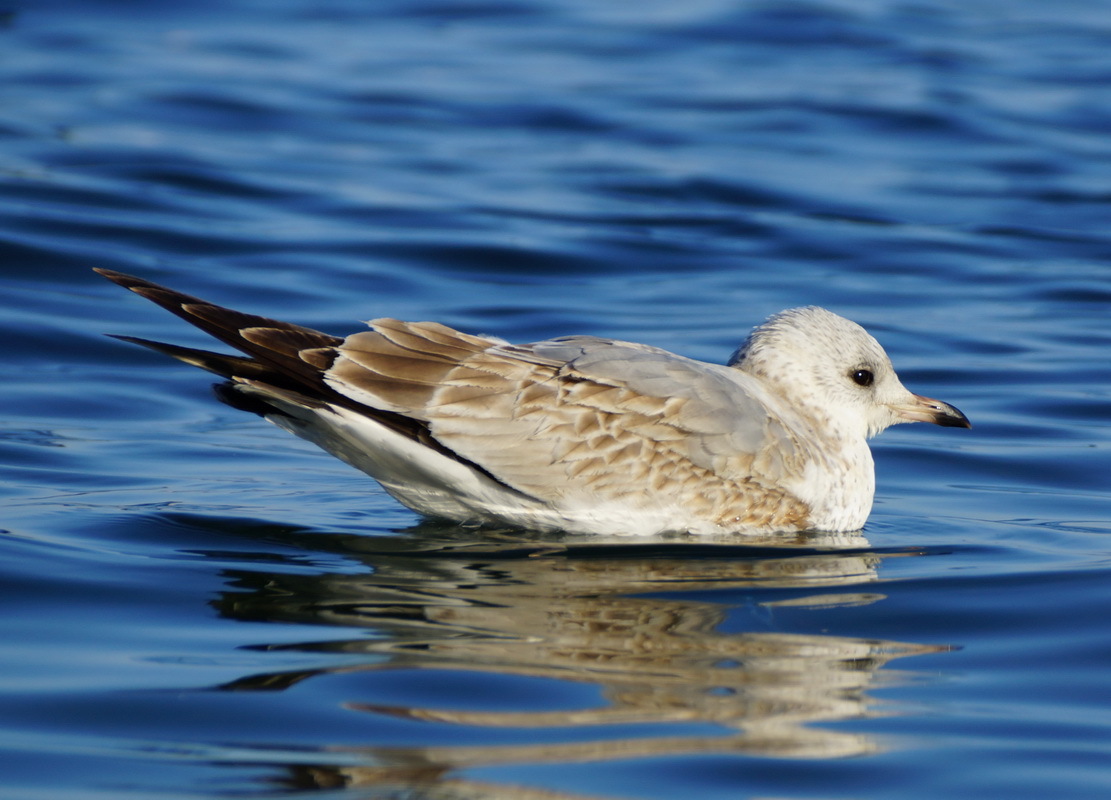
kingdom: Animalia
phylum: Chordata
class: Aves
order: Charadriiformes
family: Laridae
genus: Larus
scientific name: Larus canus
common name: Mew gull
